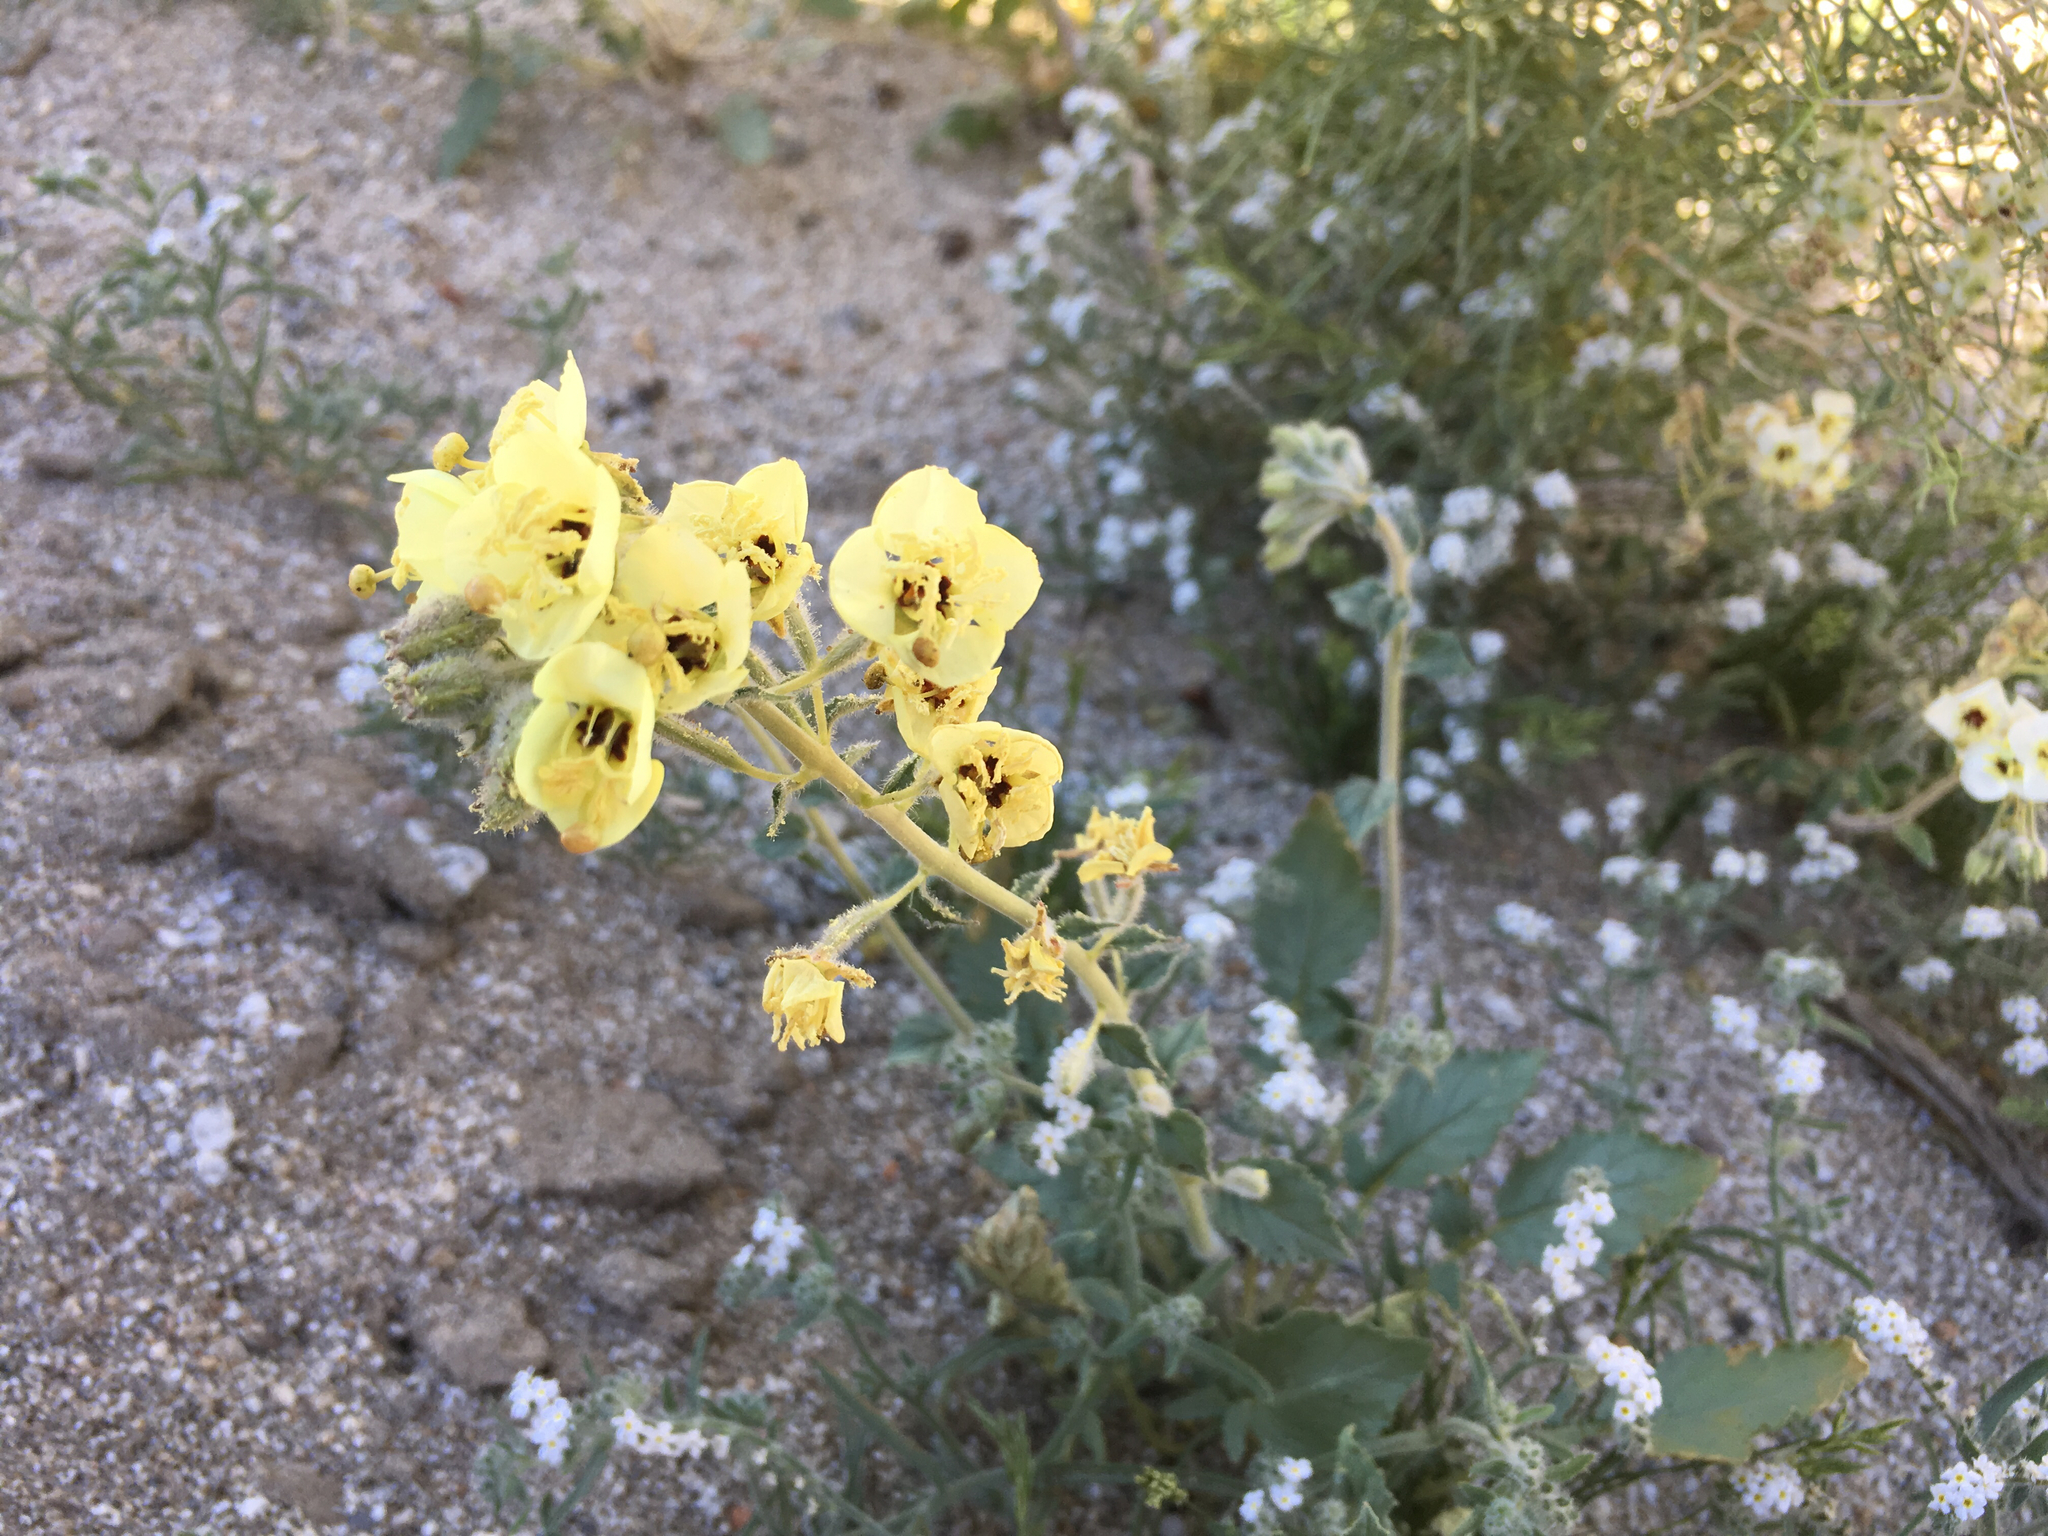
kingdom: Plantae
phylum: Tracheophyta
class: Magnoliopsida
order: Myrtales
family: Onagraceae
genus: Chylismia
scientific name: Chylismia claviformis
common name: Browneyes
